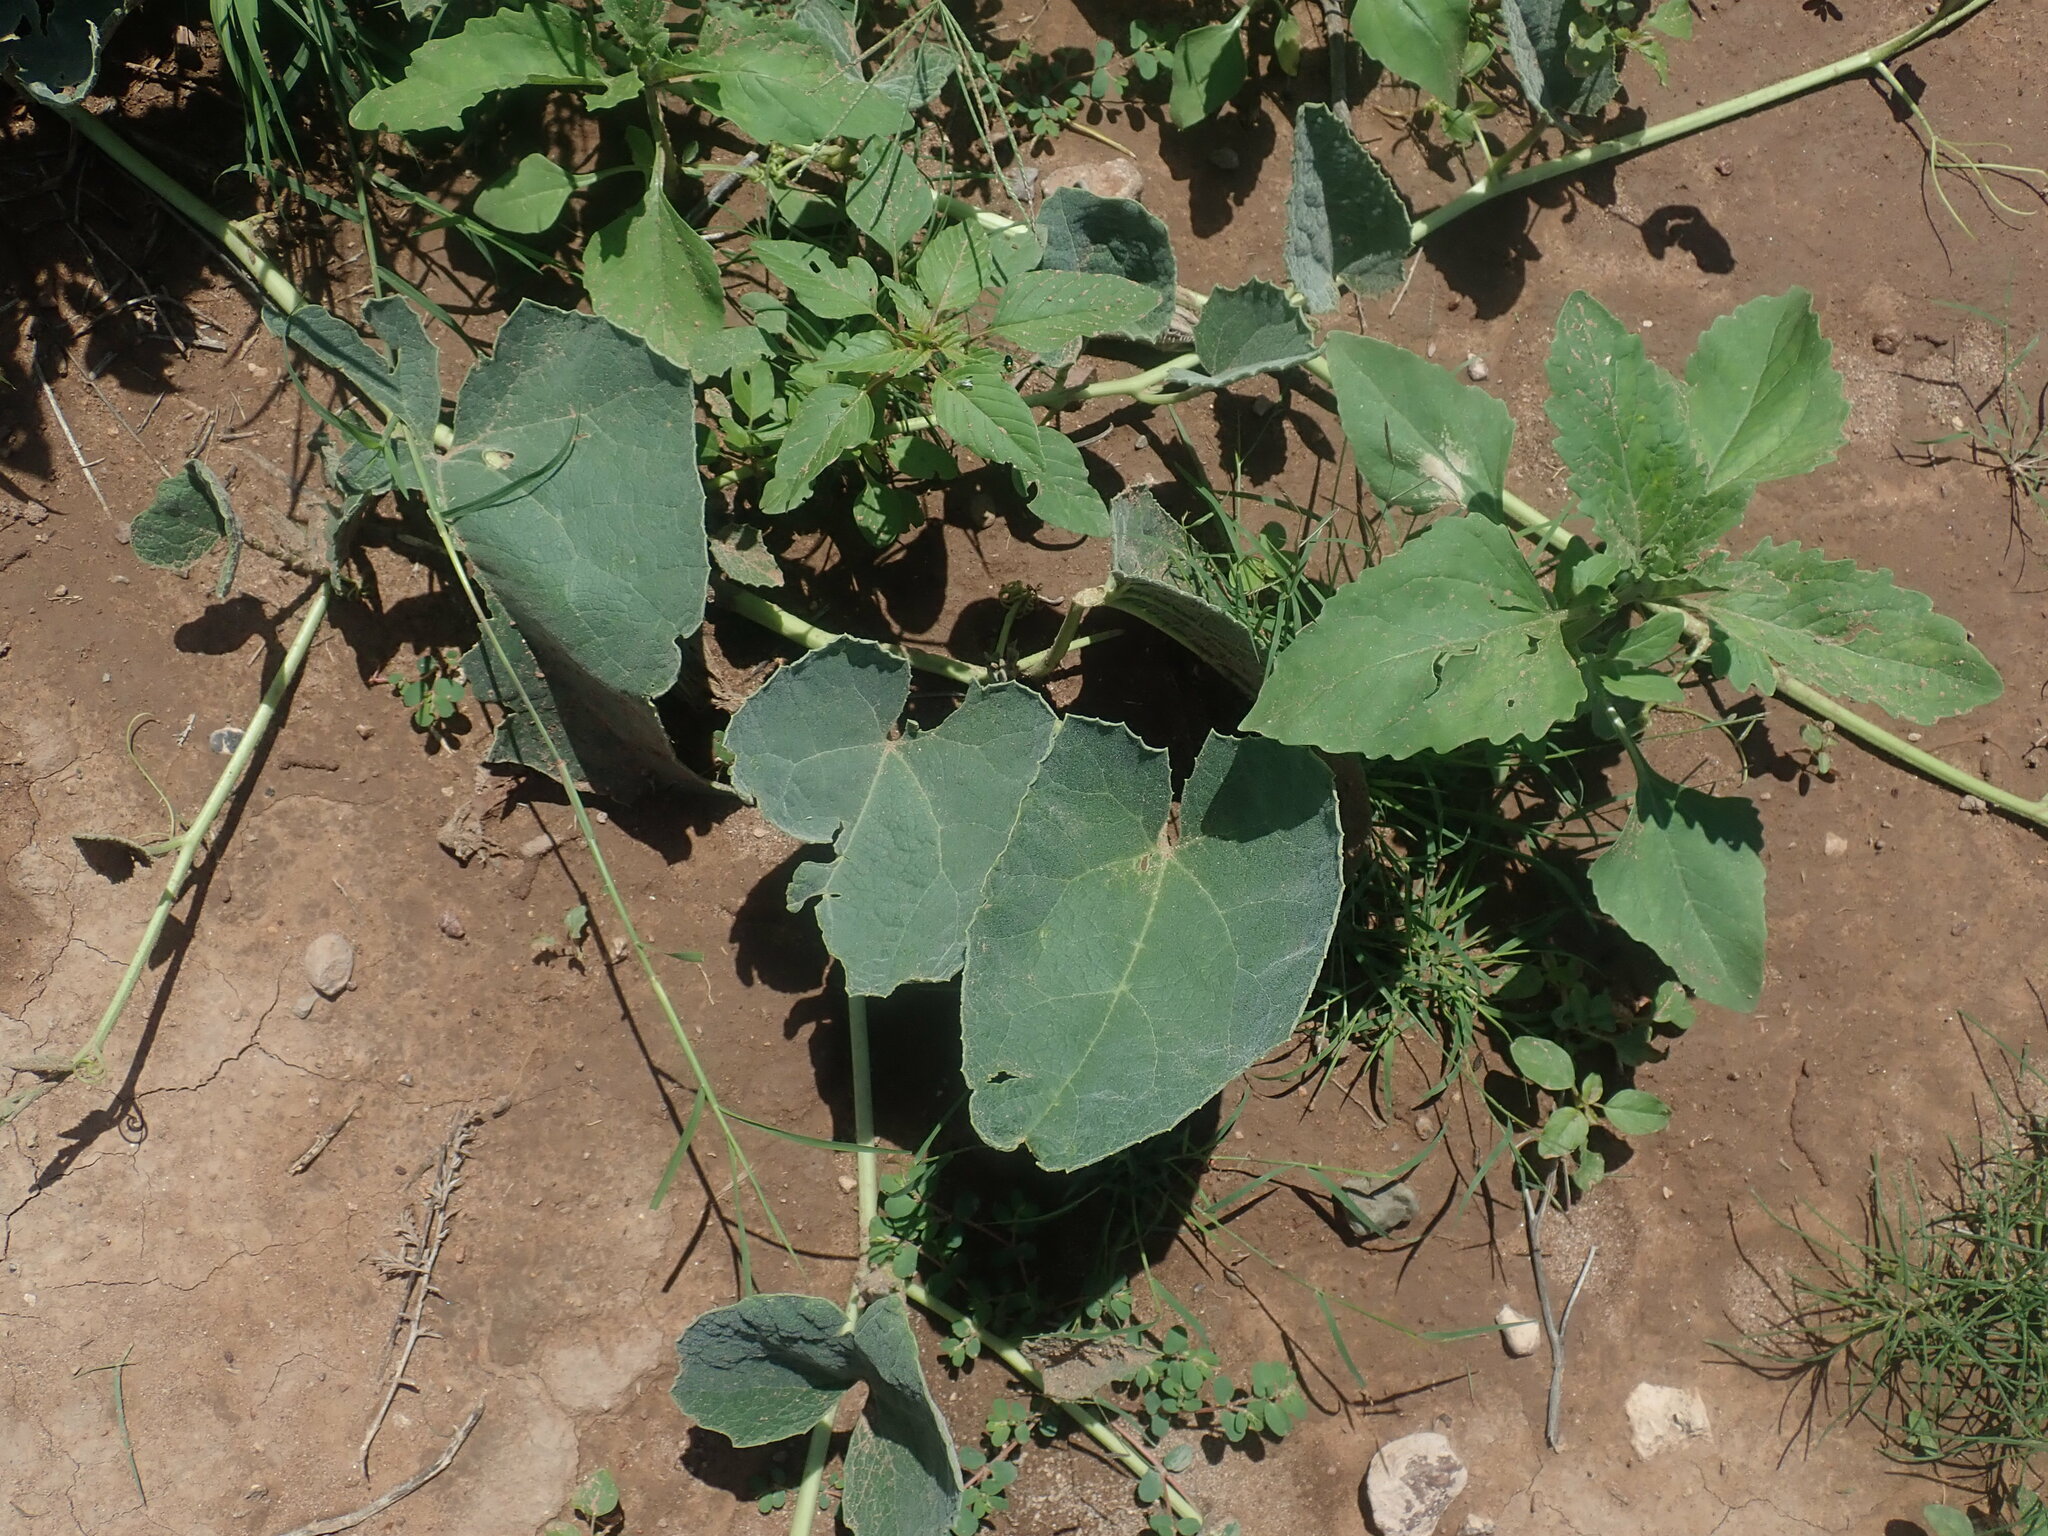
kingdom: Plantae
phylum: Tracheophyta
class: Magnoliopsida
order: Cucurbitales
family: Cucurbitaceae
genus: Cucurbita
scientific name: Cucurbita foetidissima
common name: Buffalo gourd
